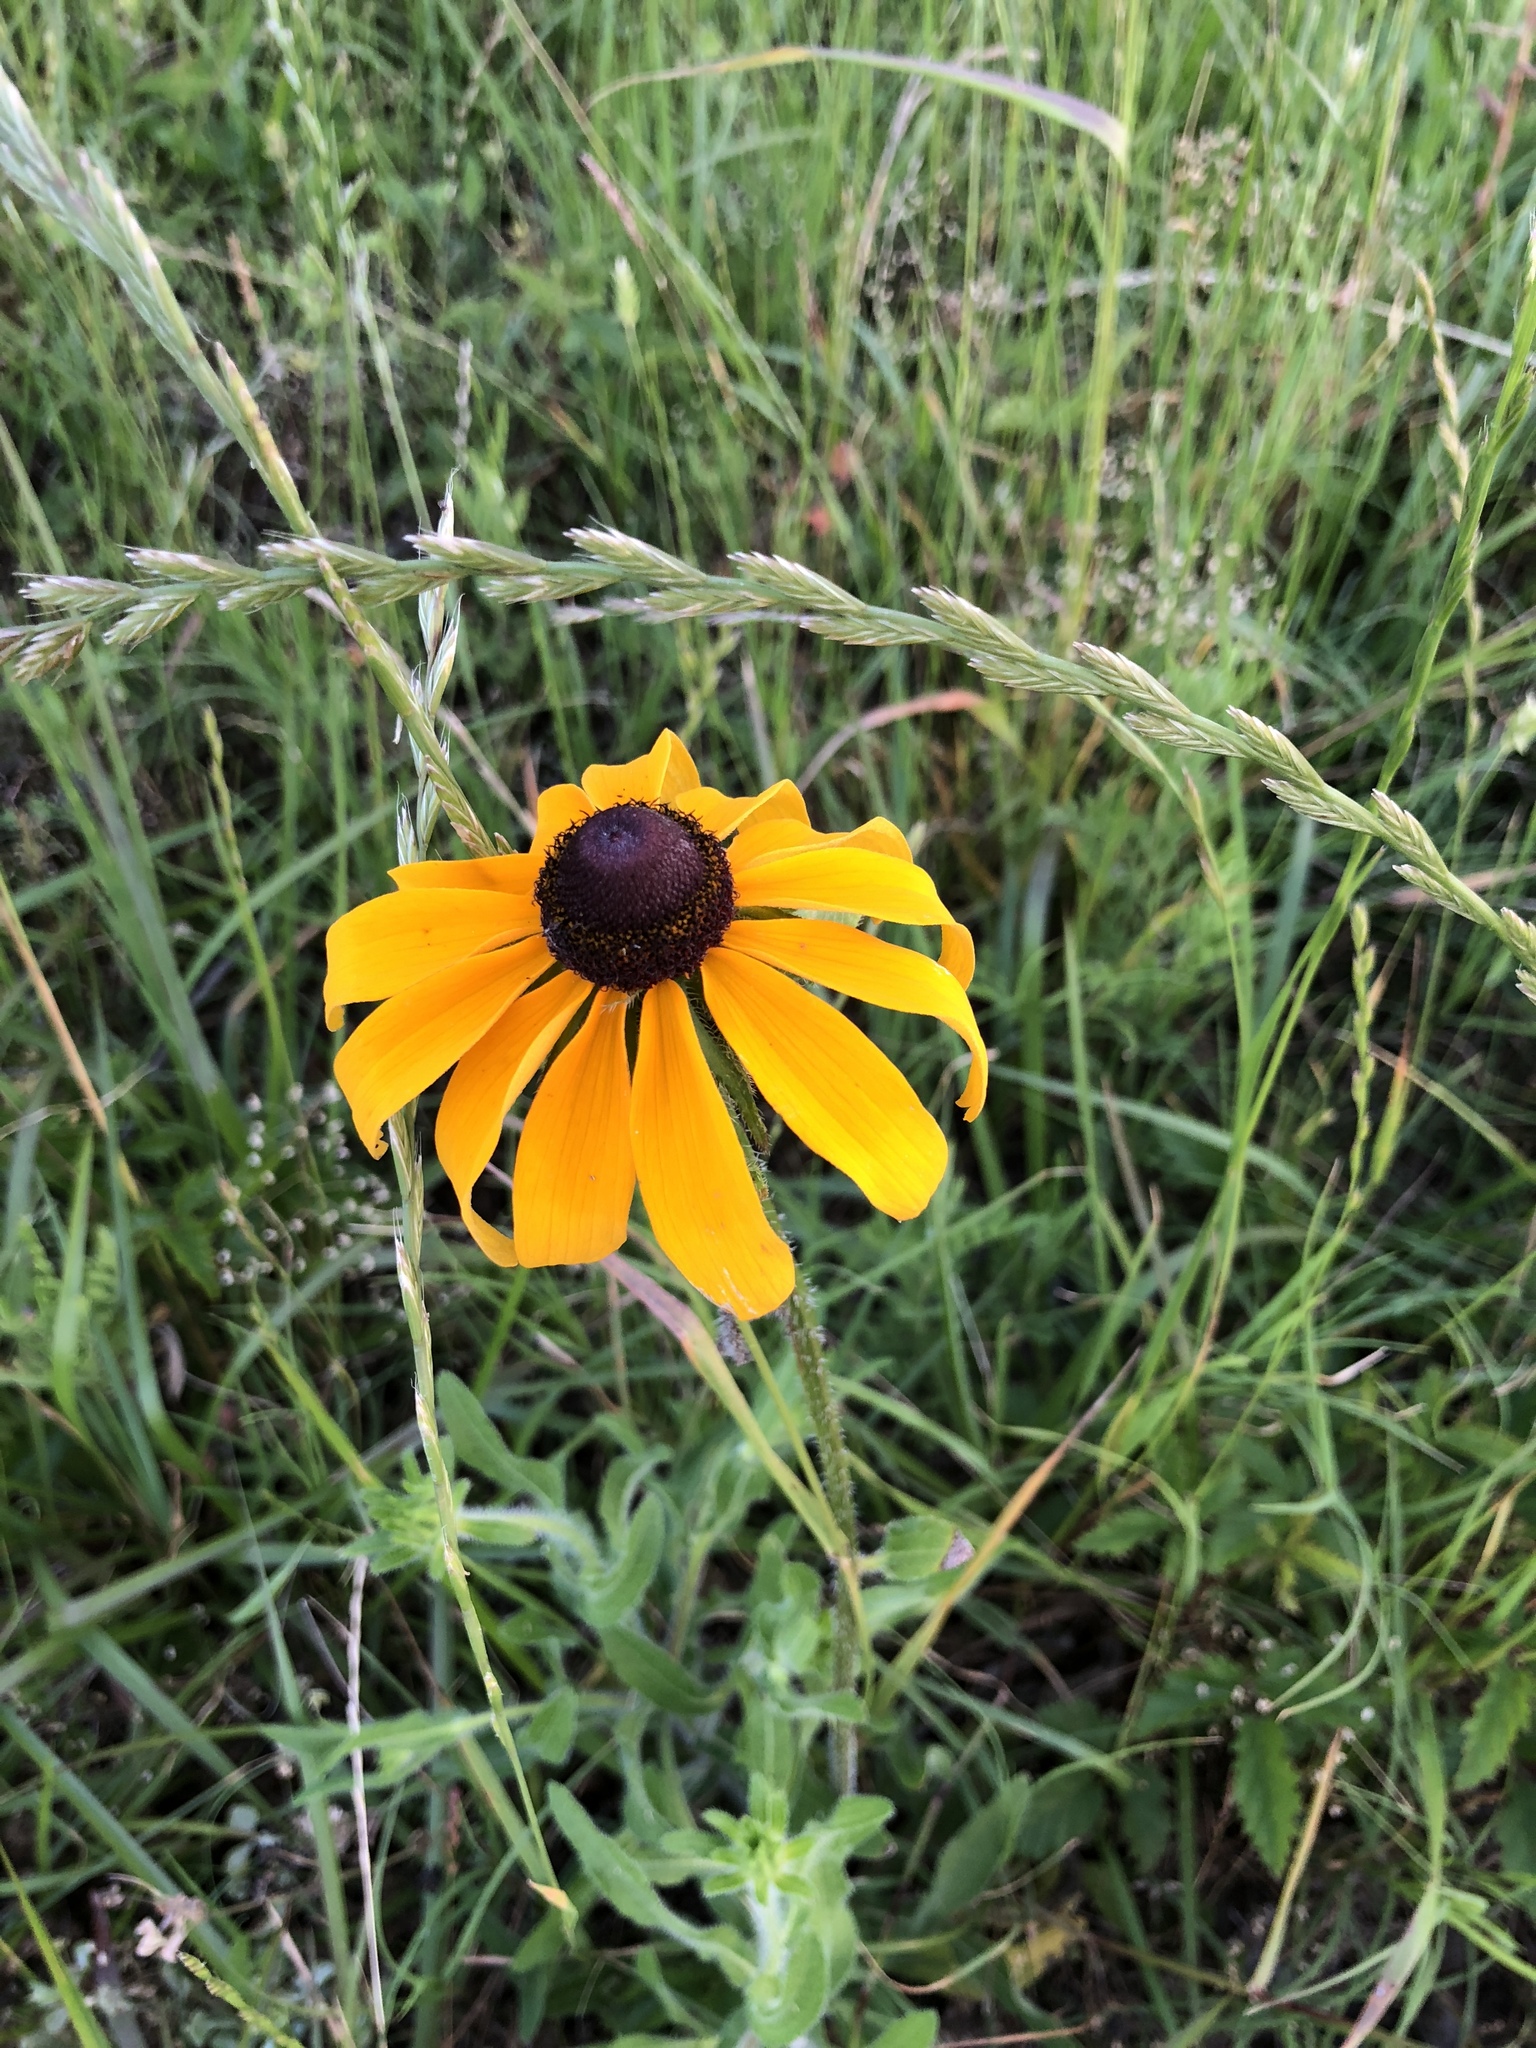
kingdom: Plantae
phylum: Tracheophyta
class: Magnoliopsida
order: Asterales
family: Asteraceae
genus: Rudbeckia
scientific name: Rudbeckia hirta
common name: Black-eyed-susan
